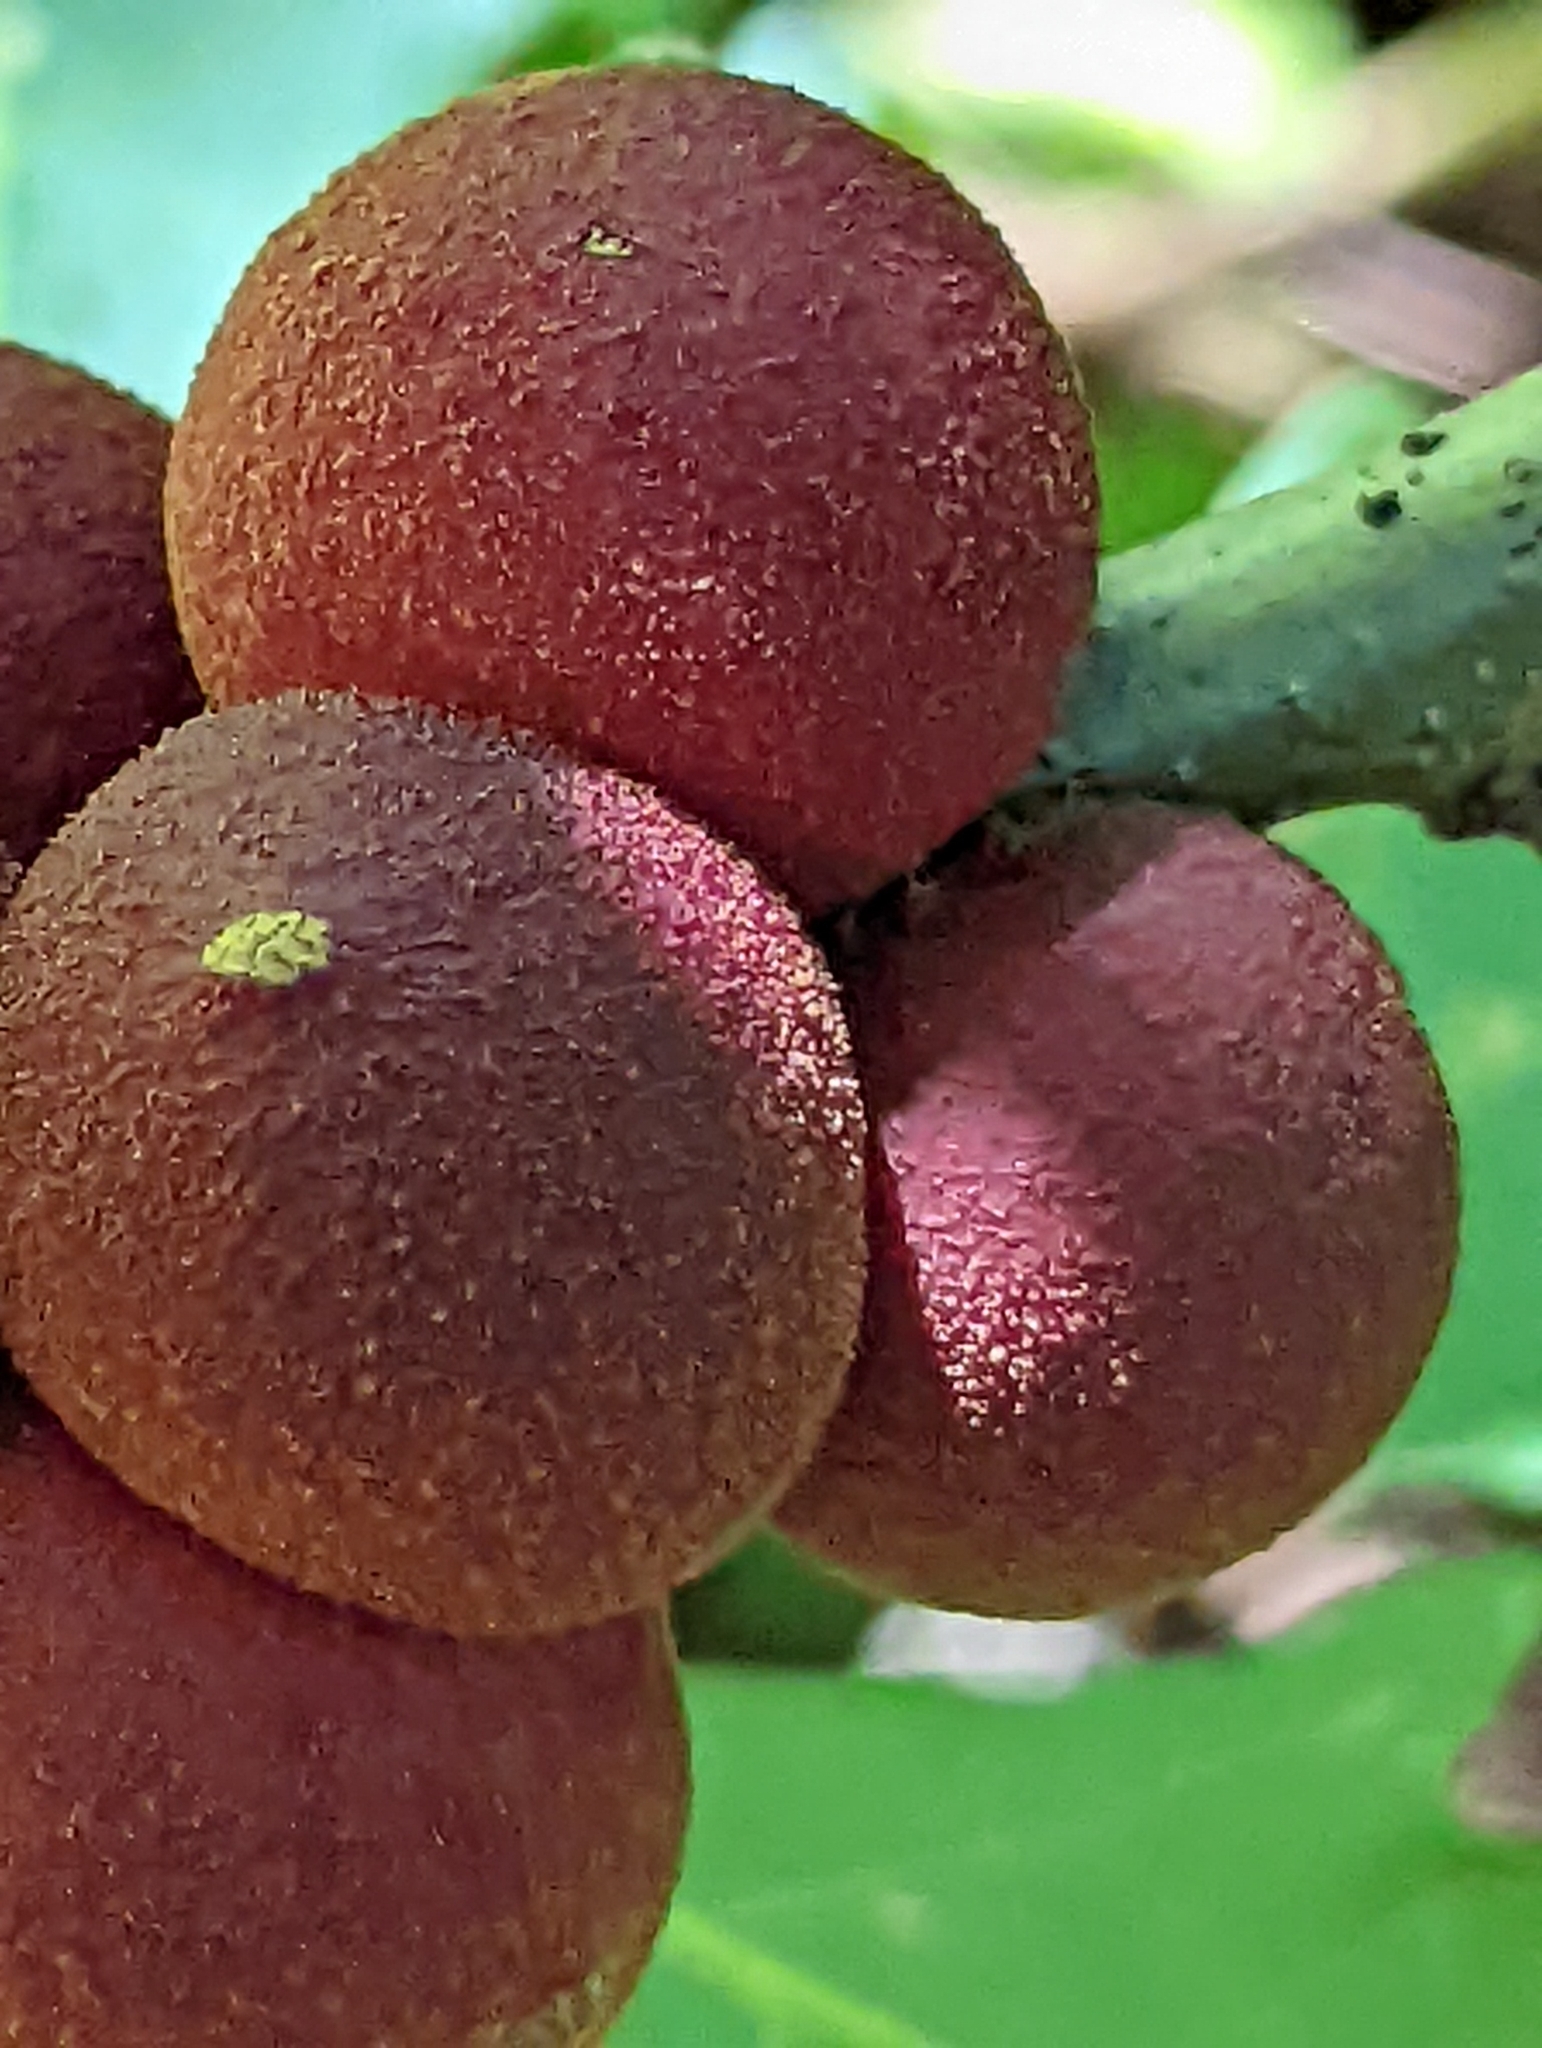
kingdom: Animalia
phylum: Arthropoda
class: Insecta
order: Hymenoptera
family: Cynipidae
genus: Disholcaspis
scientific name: Disholcaspis
